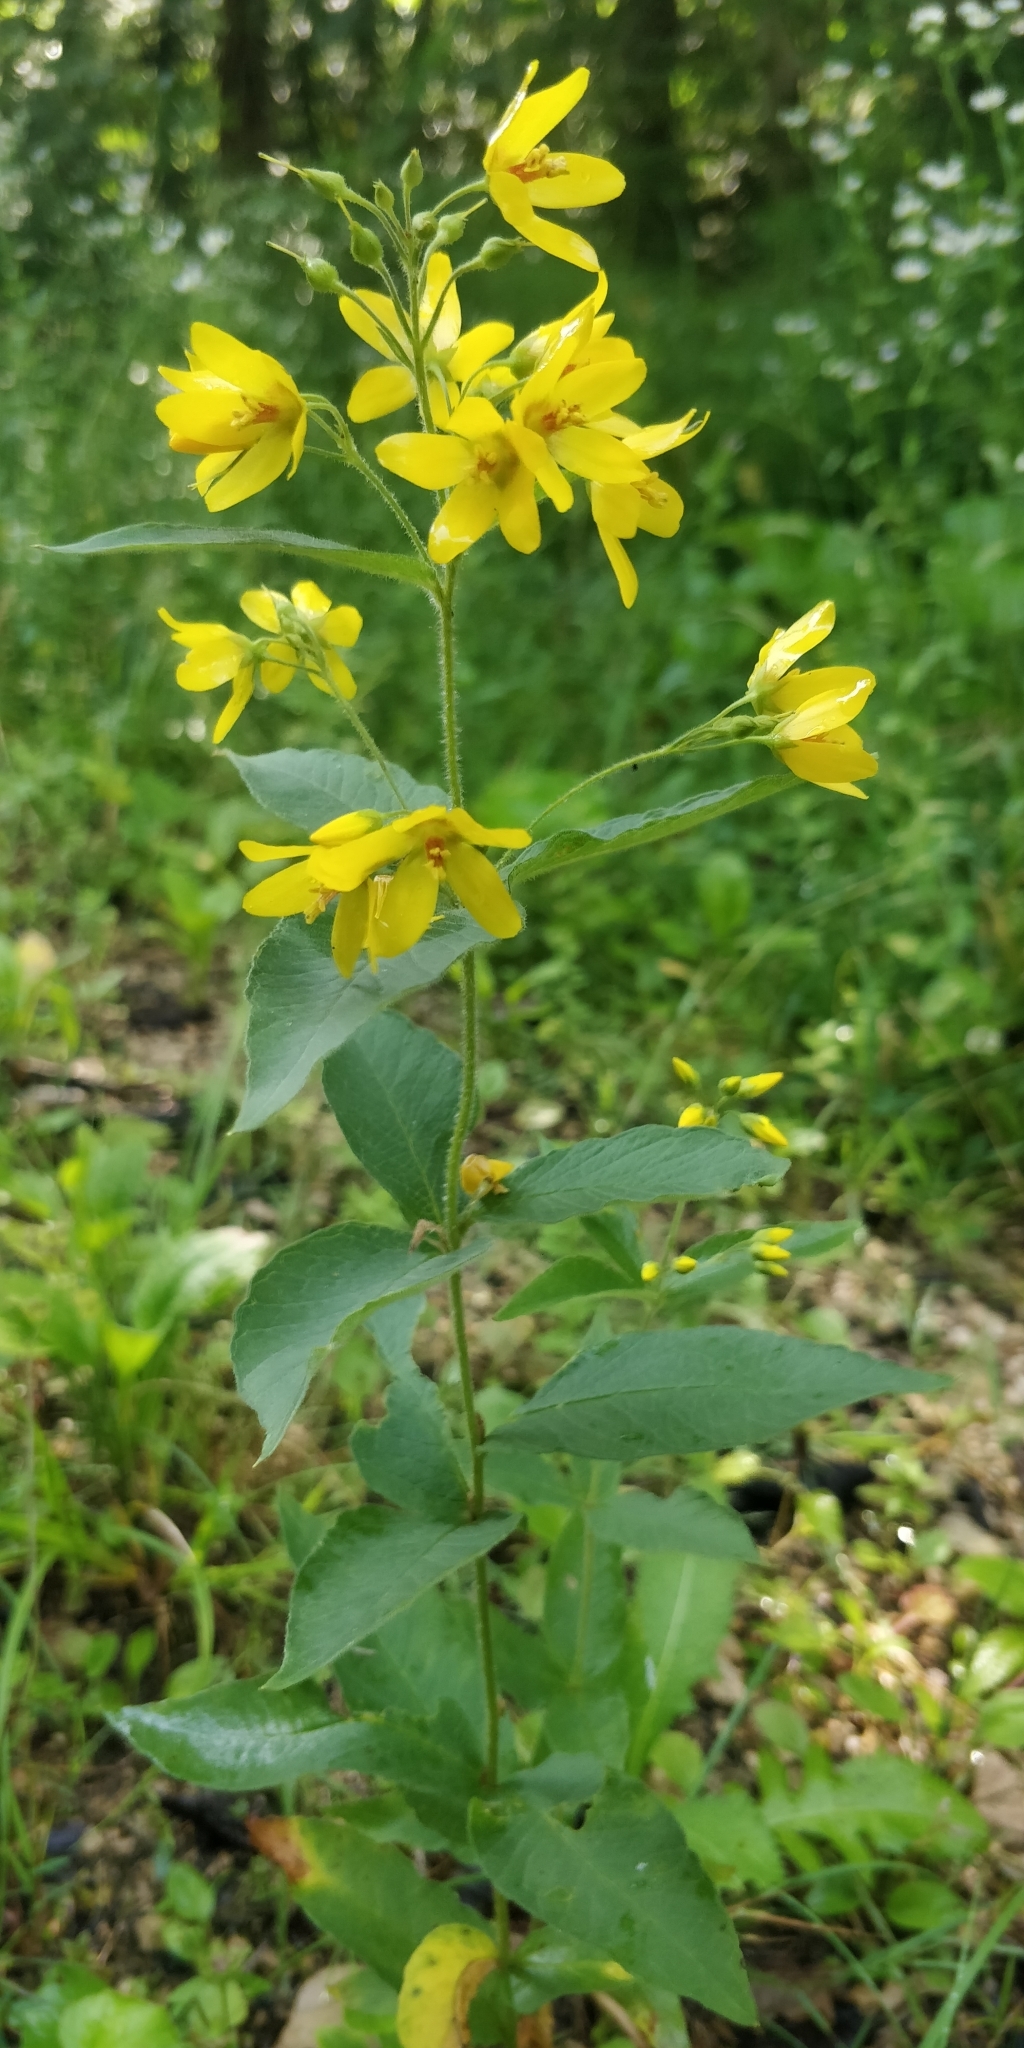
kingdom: Plantae
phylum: Tracheophyta
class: Magnoliopsida
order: Ericales
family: Primulaceae
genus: Lysimachia
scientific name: Lysimachia vulgaris
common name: Yellow loosestrife
